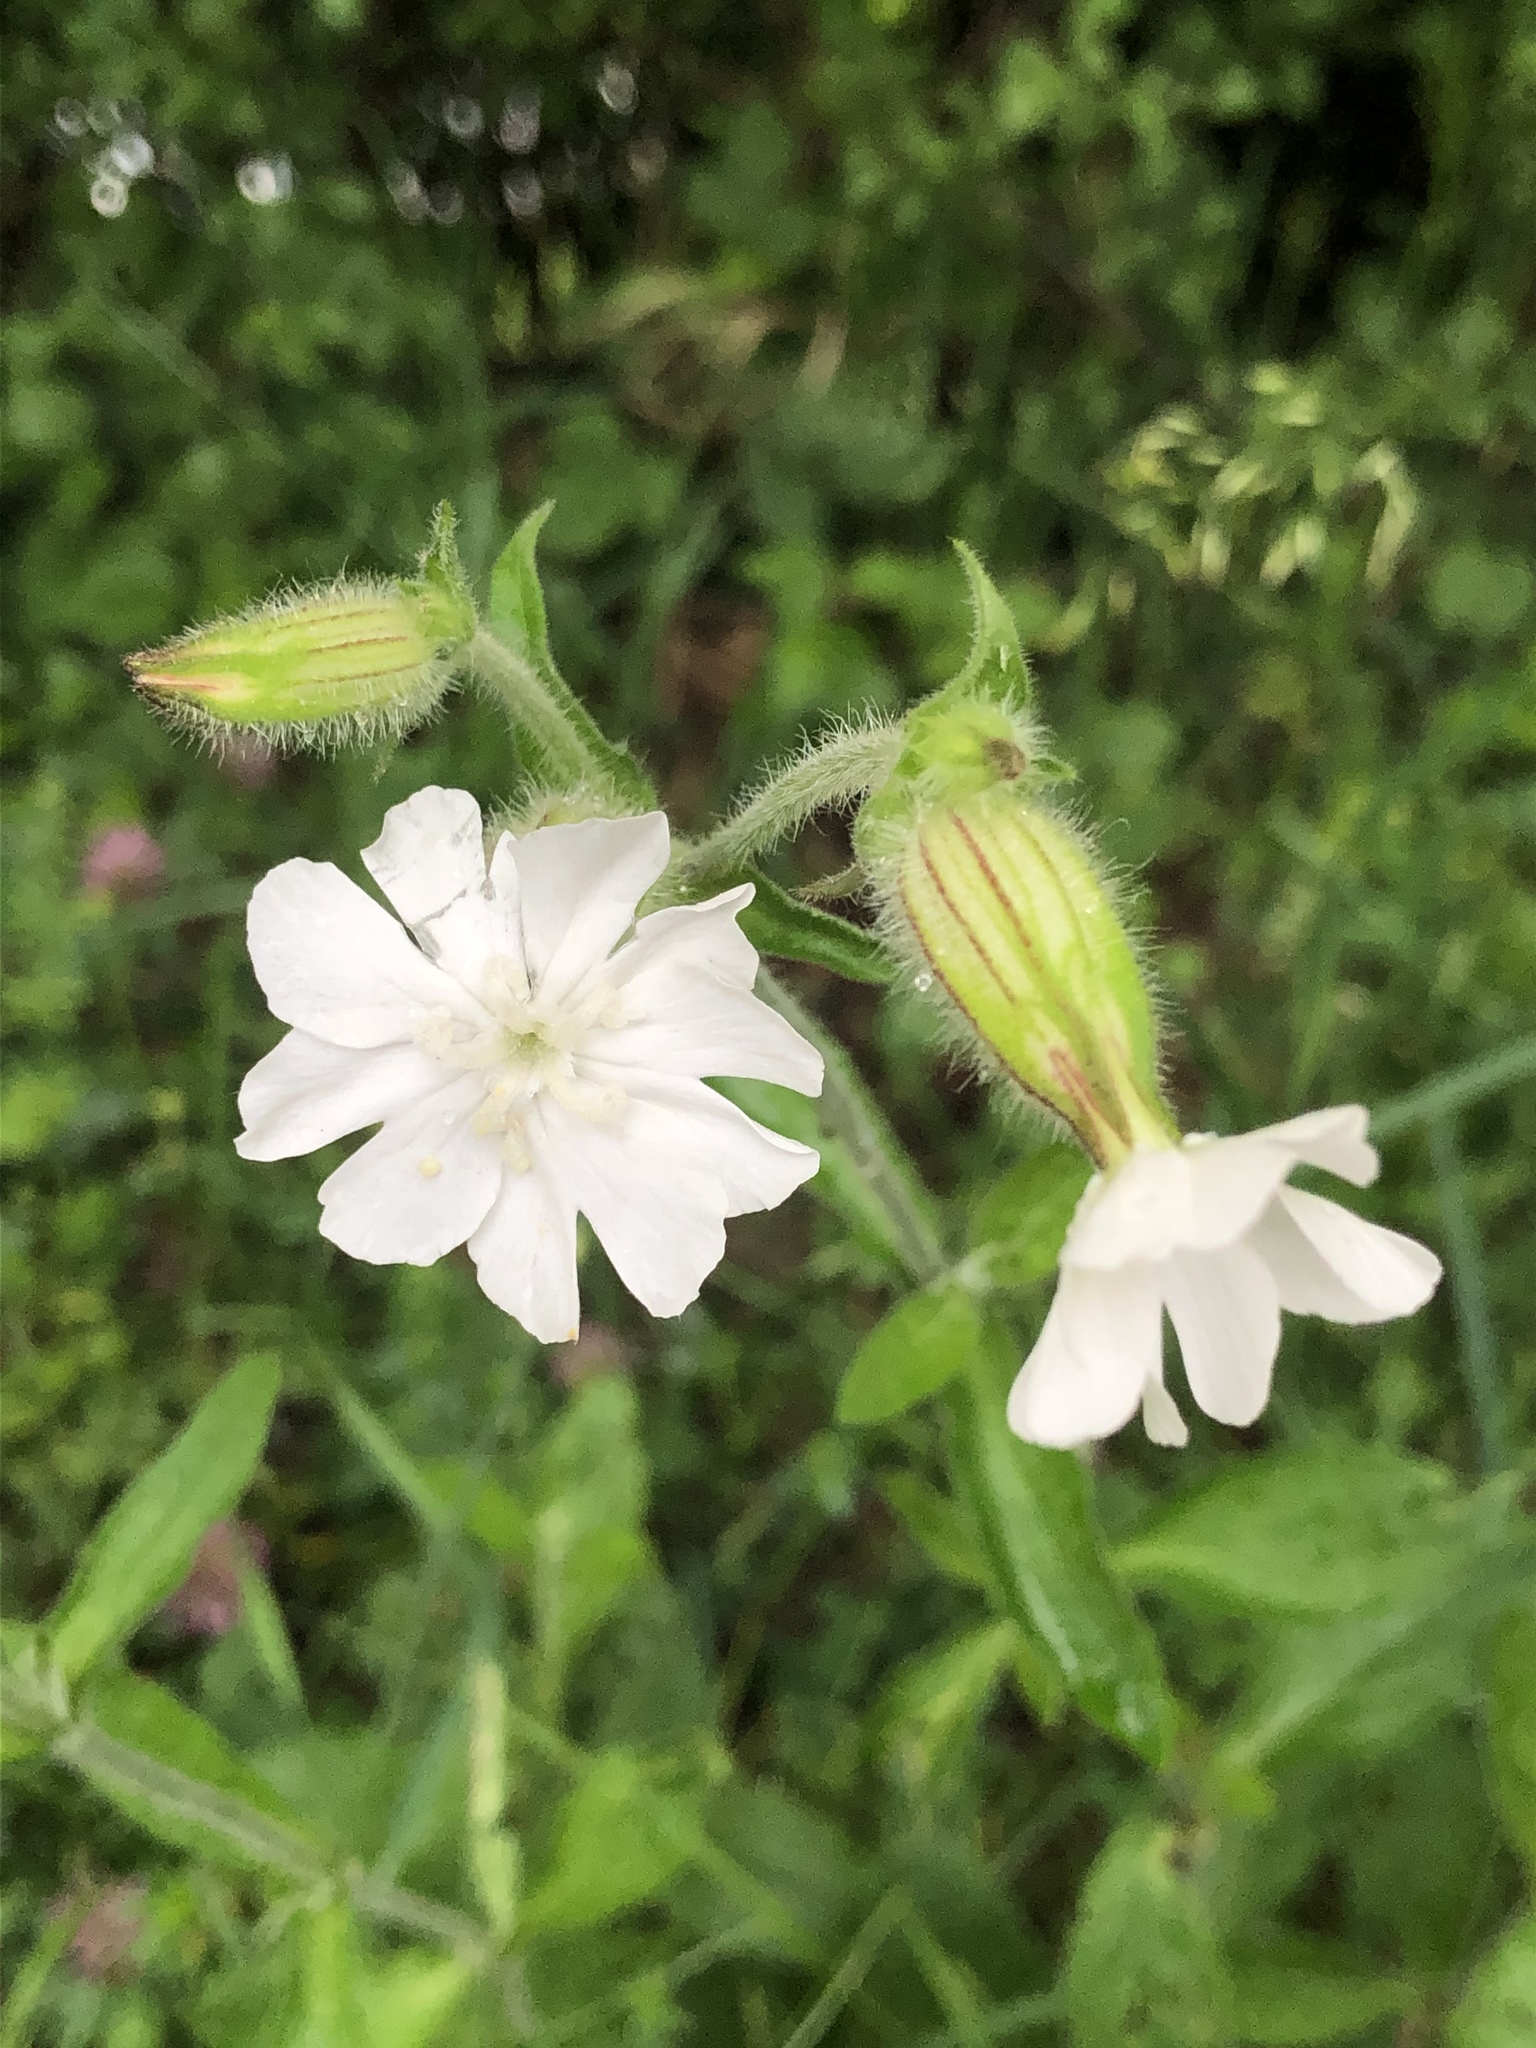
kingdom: Plantae
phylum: Tracheophyta
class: Magnoliopsida
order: Caryophyllales
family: Caryophyllaceae
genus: Silene
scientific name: Silene latifolia
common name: White campion
